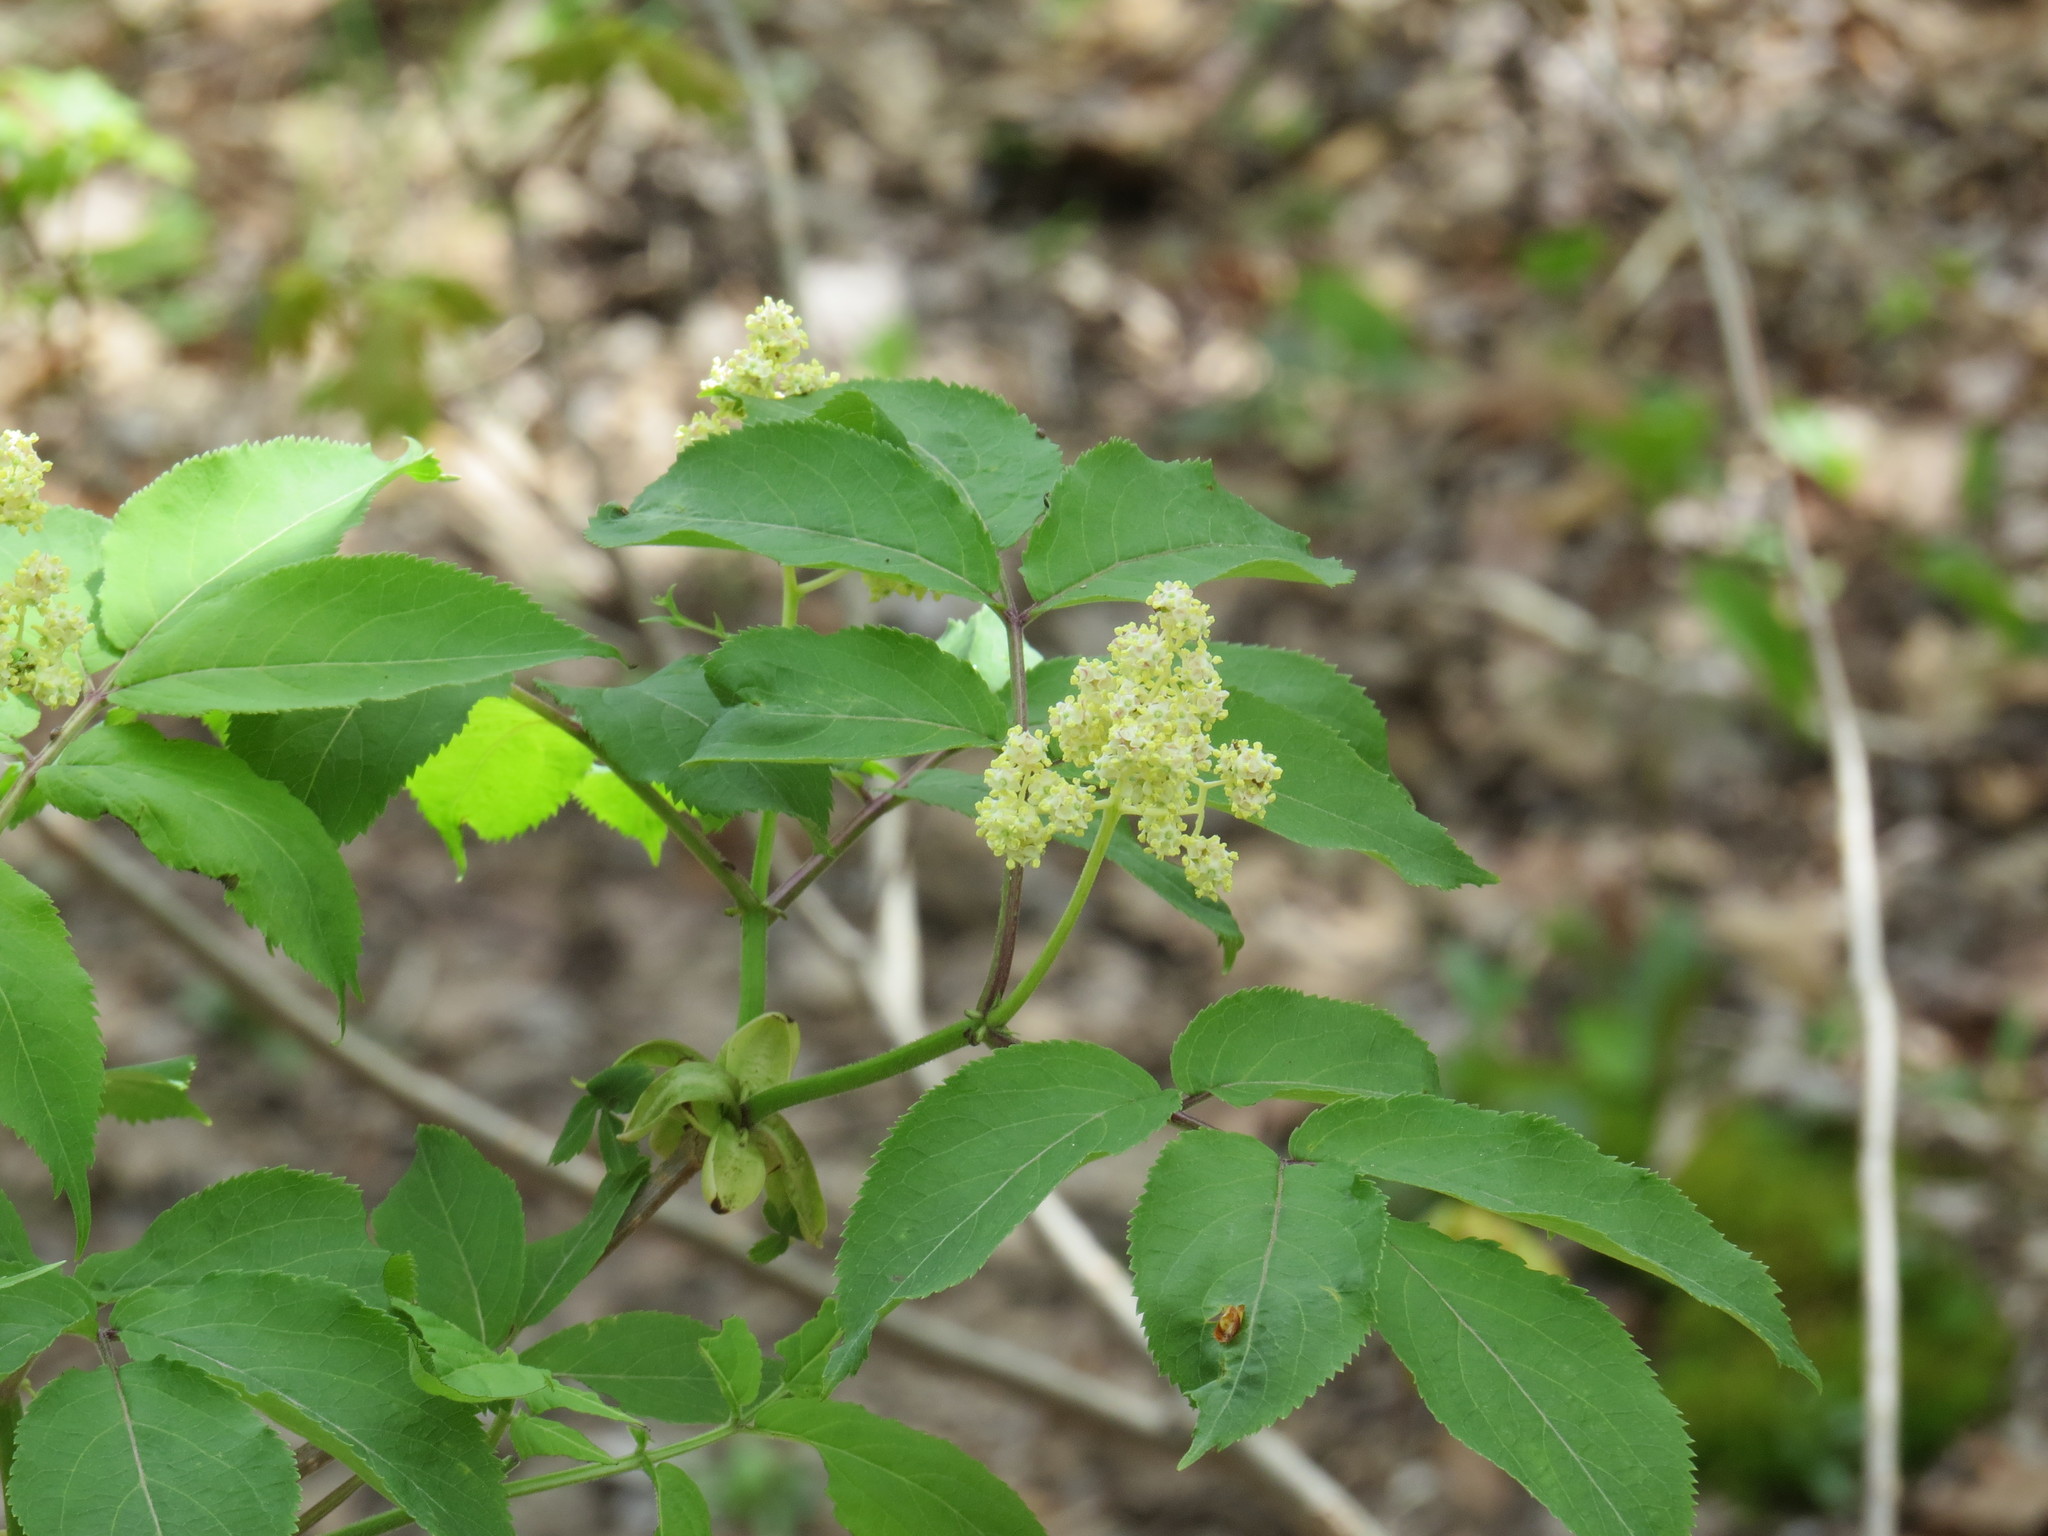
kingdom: Plantae
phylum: Tracheophyta
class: Magnoliopsida
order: Dipsacales
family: Viburnaceae
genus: Sambucus
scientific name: Sambucus racemosa
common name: Red-berried elder
